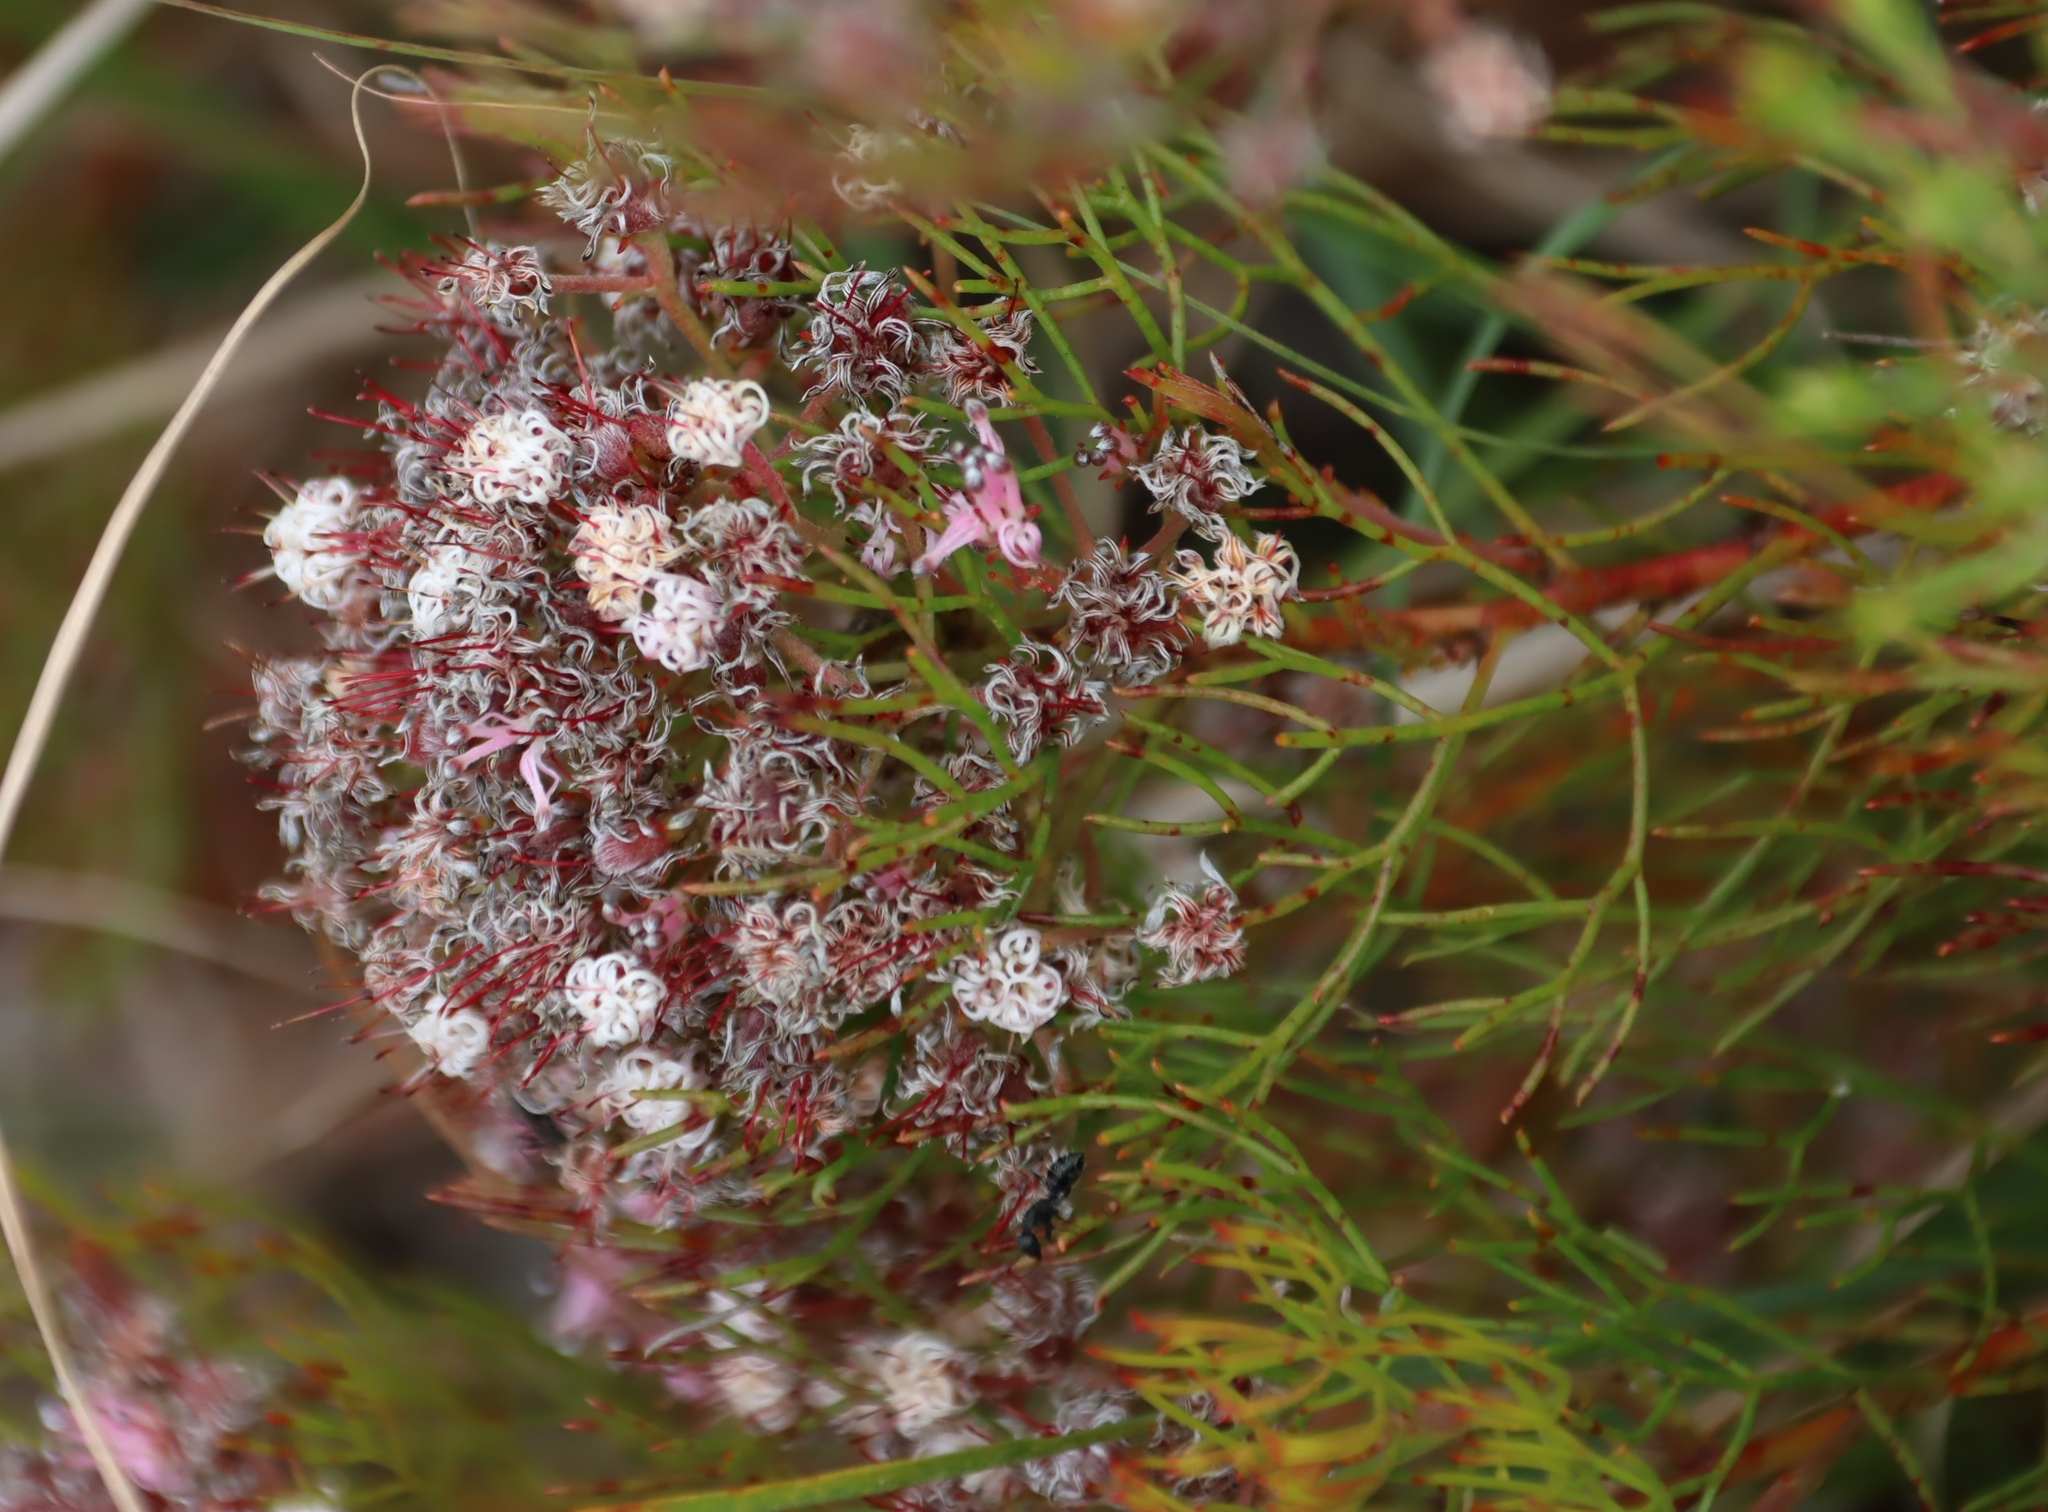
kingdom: Plantae
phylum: Tracheophyta
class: Magnoliopsida
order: Proteales
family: Proteaceae
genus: Serruria
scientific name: Serruria fasciflora
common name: Common pin spiderhead
